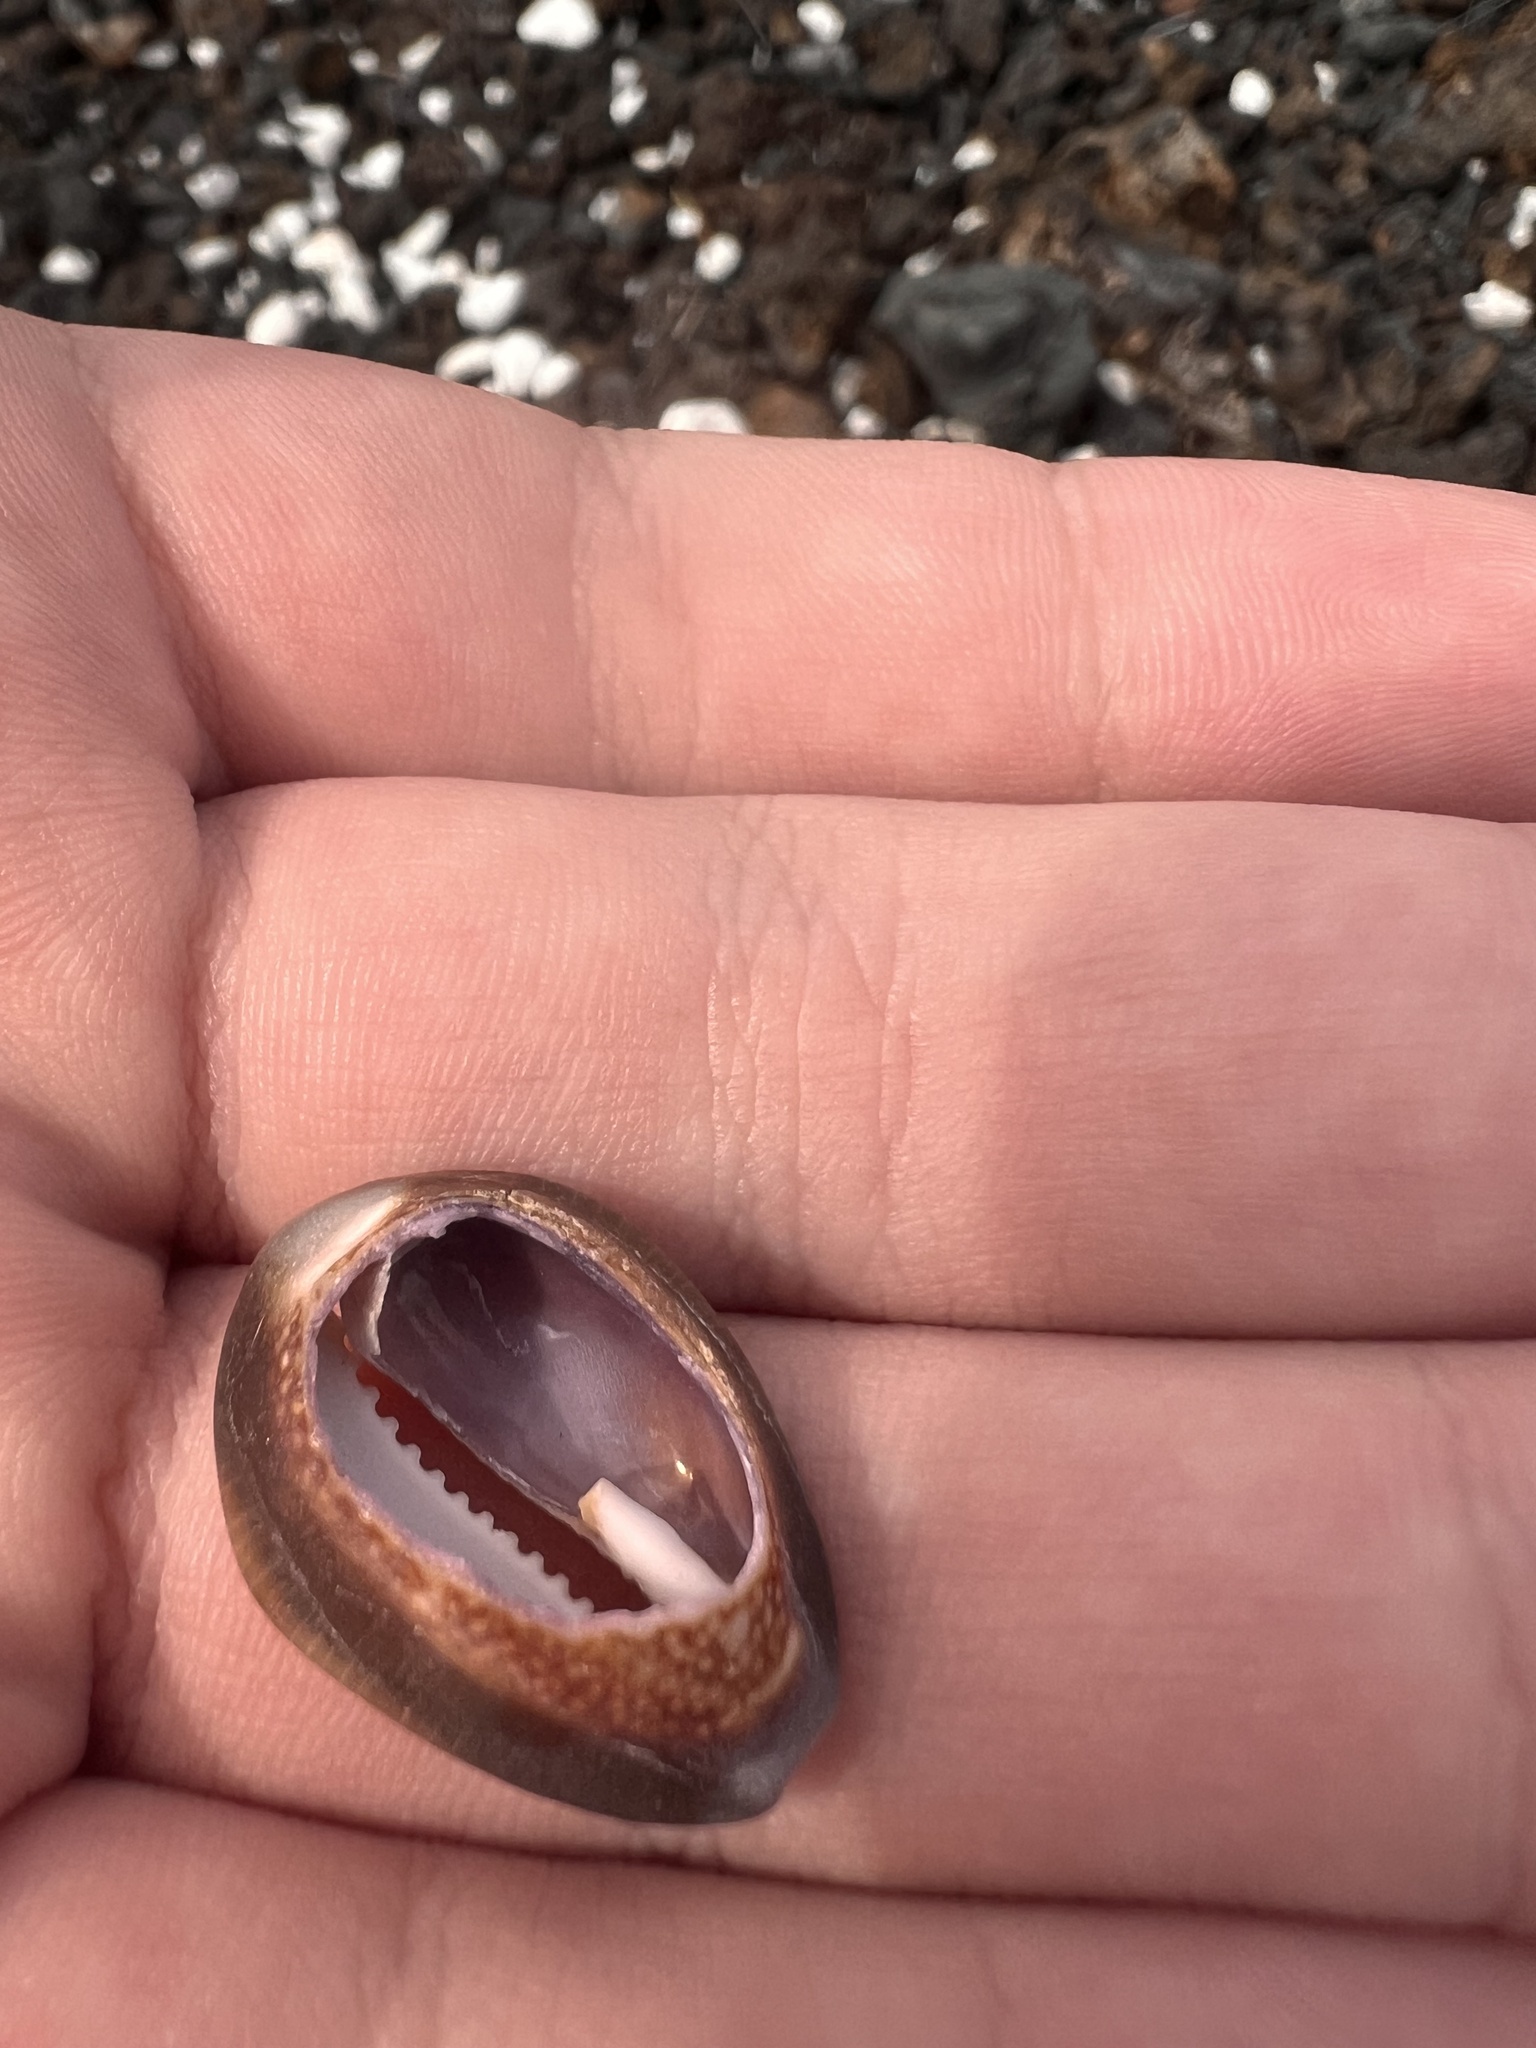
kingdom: Animalia
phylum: Mollusca
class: Gastropoda
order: Littorinimorpha
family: Cypraeidae
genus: Monetaria
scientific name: Monetaria caputserpentis
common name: Serpent's head cowrie
